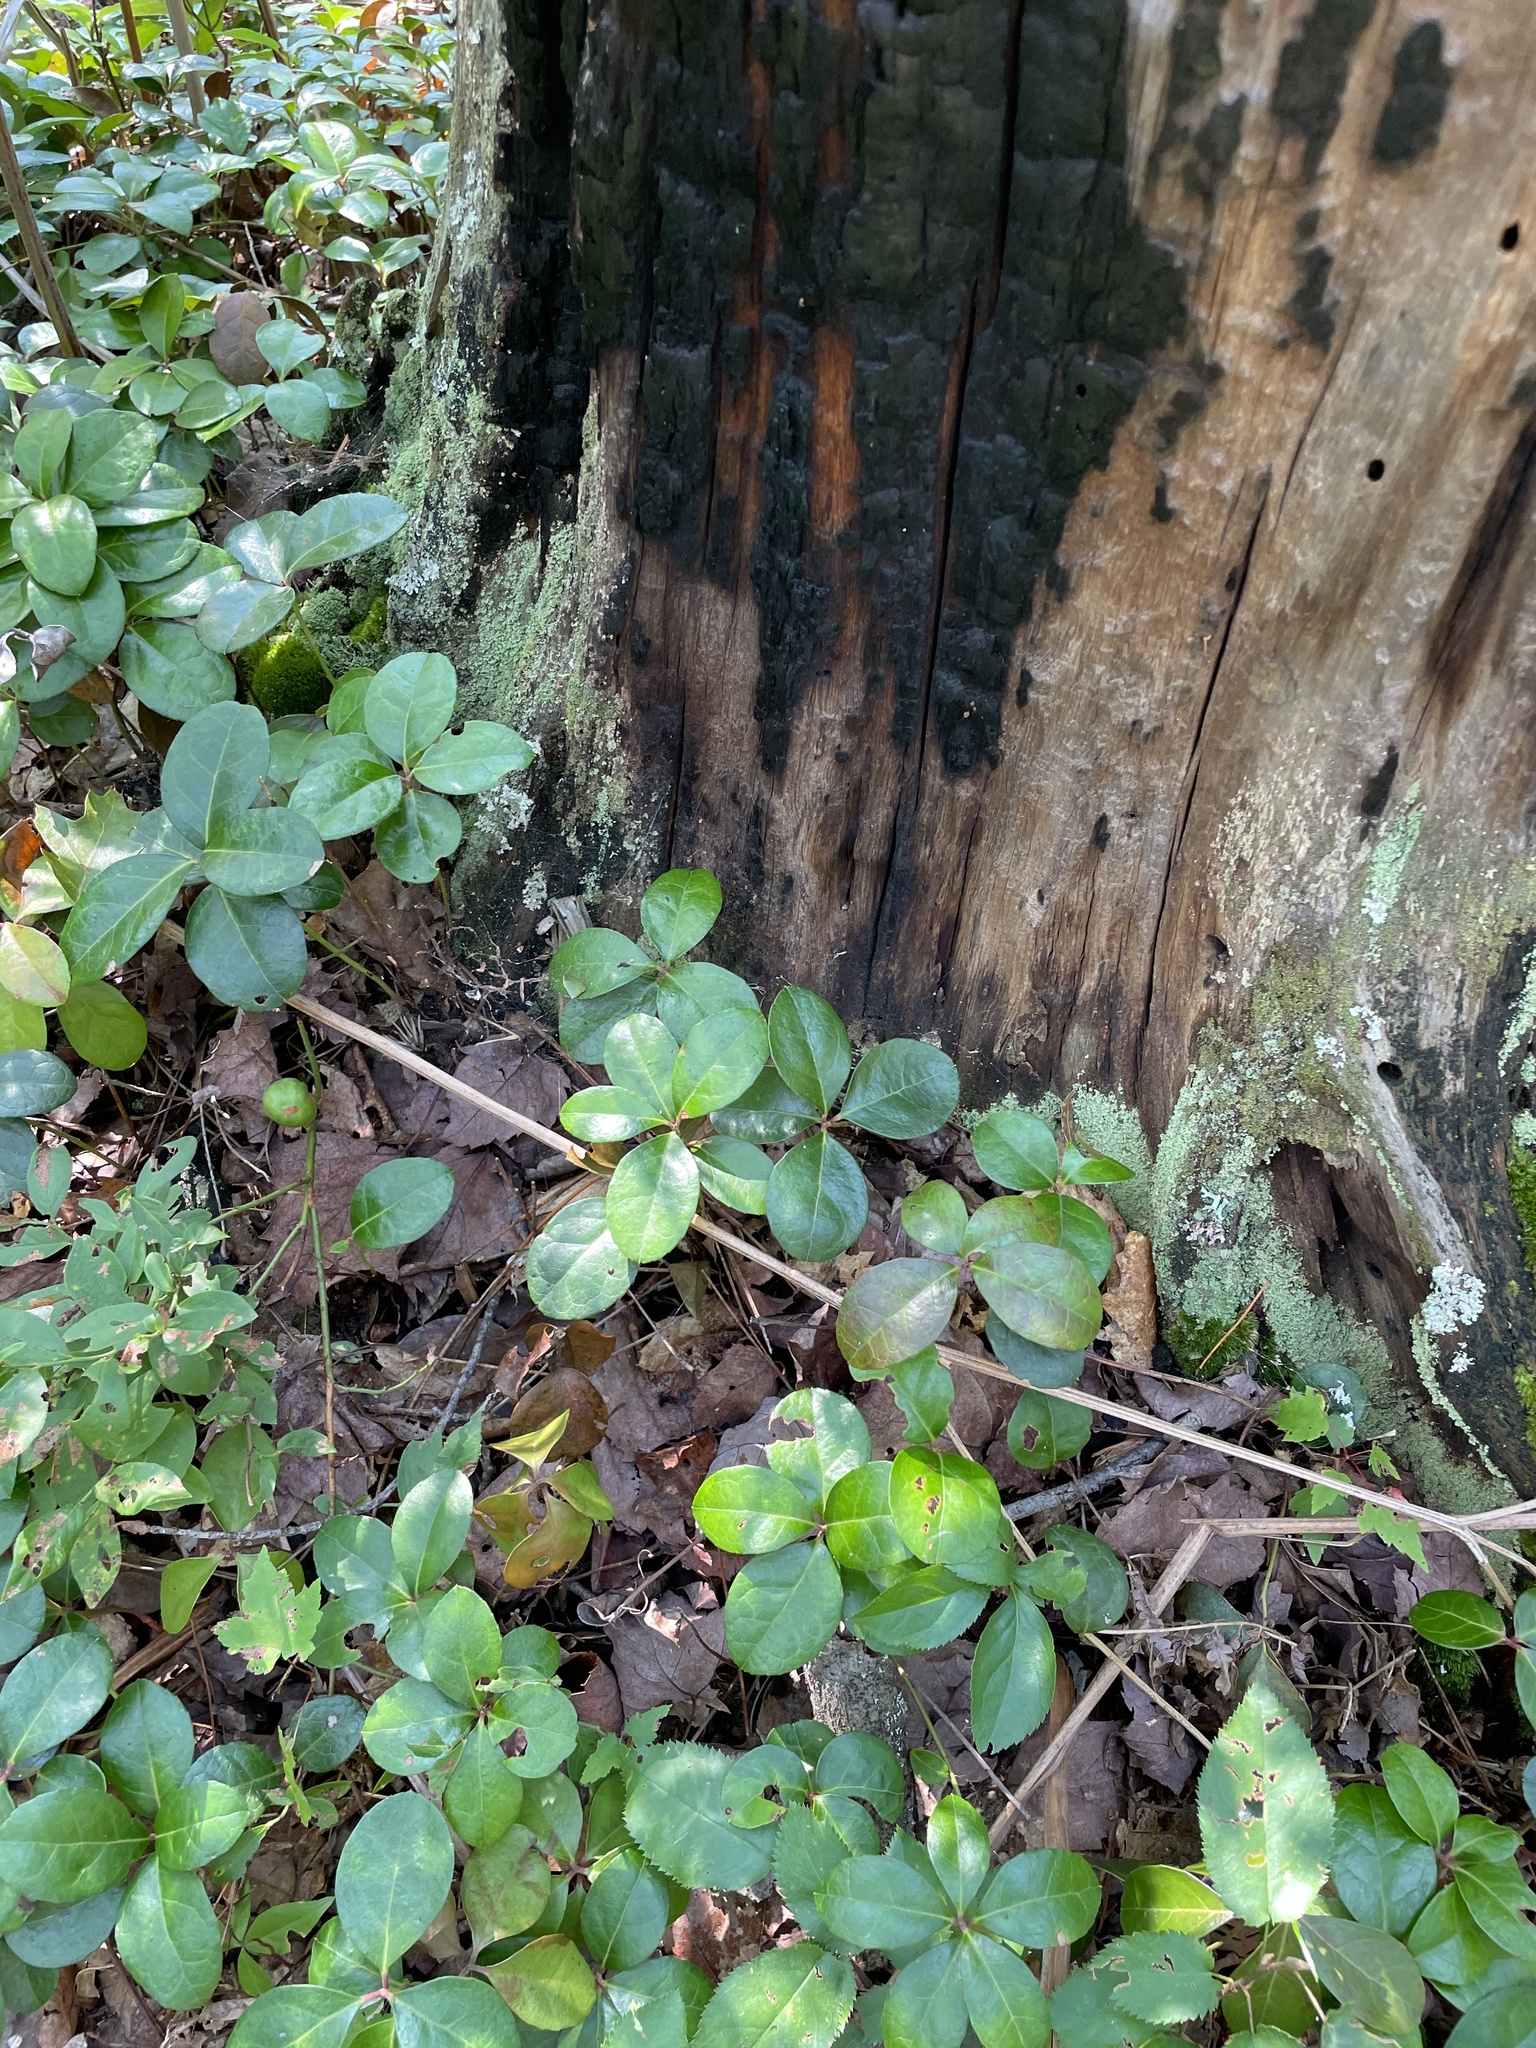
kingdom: Plantae
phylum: Tracheophyta
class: Magnoliopsida
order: Ericales
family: Ericaceae
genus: Gaultheria
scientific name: Gaultheria procumbens
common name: Checkerberry
